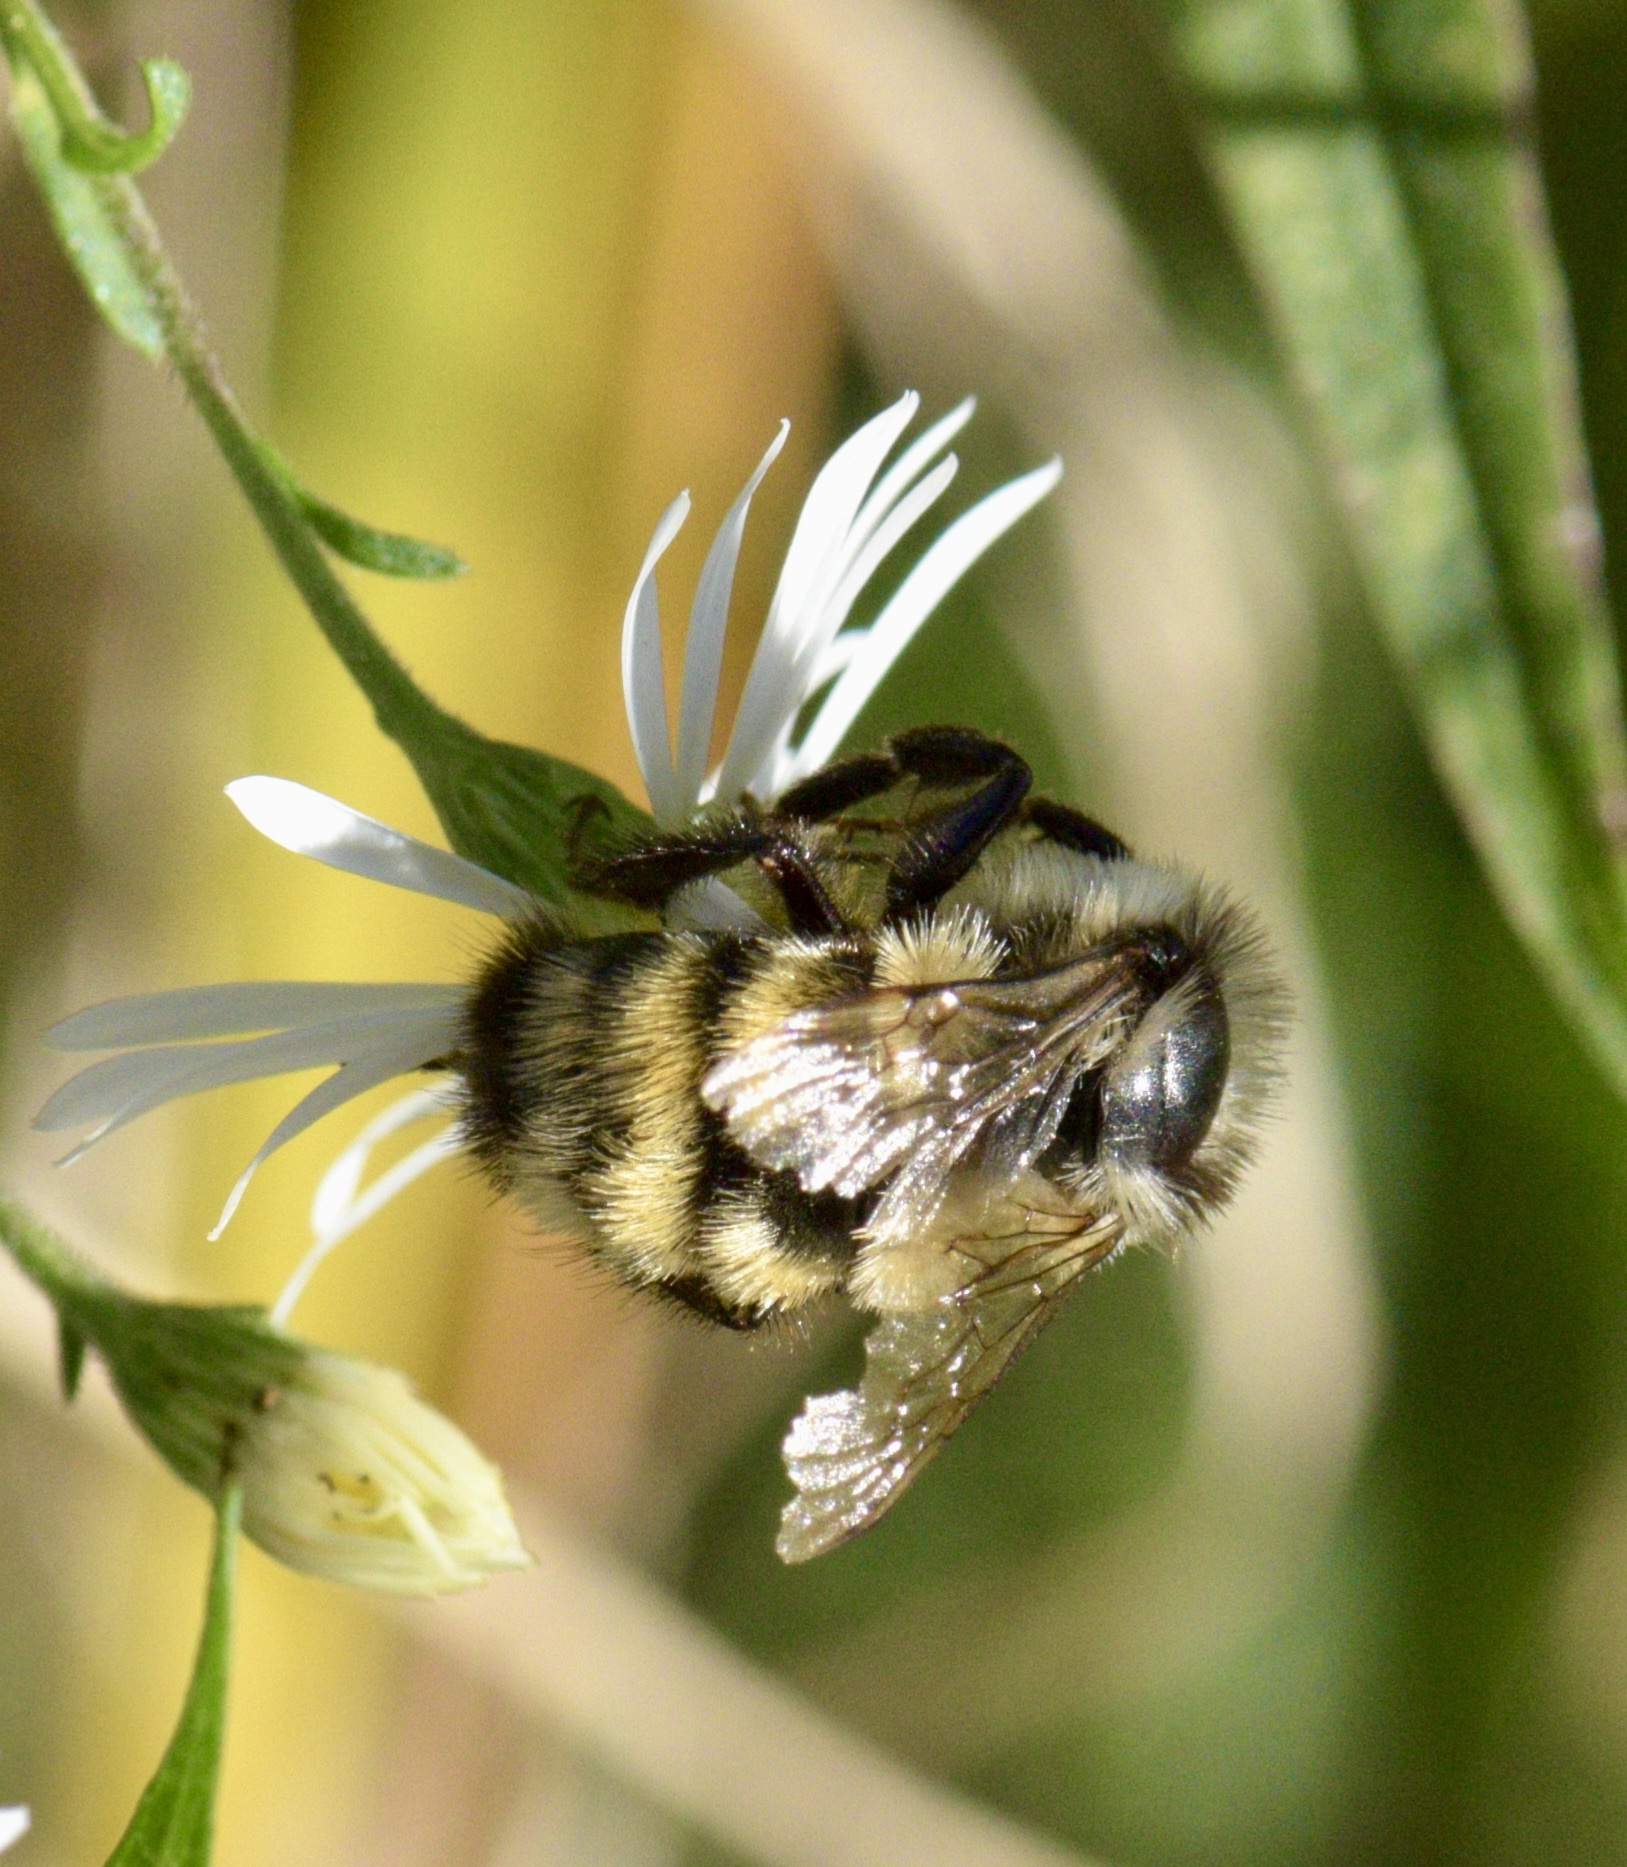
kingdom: Animalia
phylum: Arthropoda
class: Insecta
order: Hymenoptera
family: Apidae
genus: Bombus
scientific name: Bombus ternarius
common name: Tri-colored bumble bee
